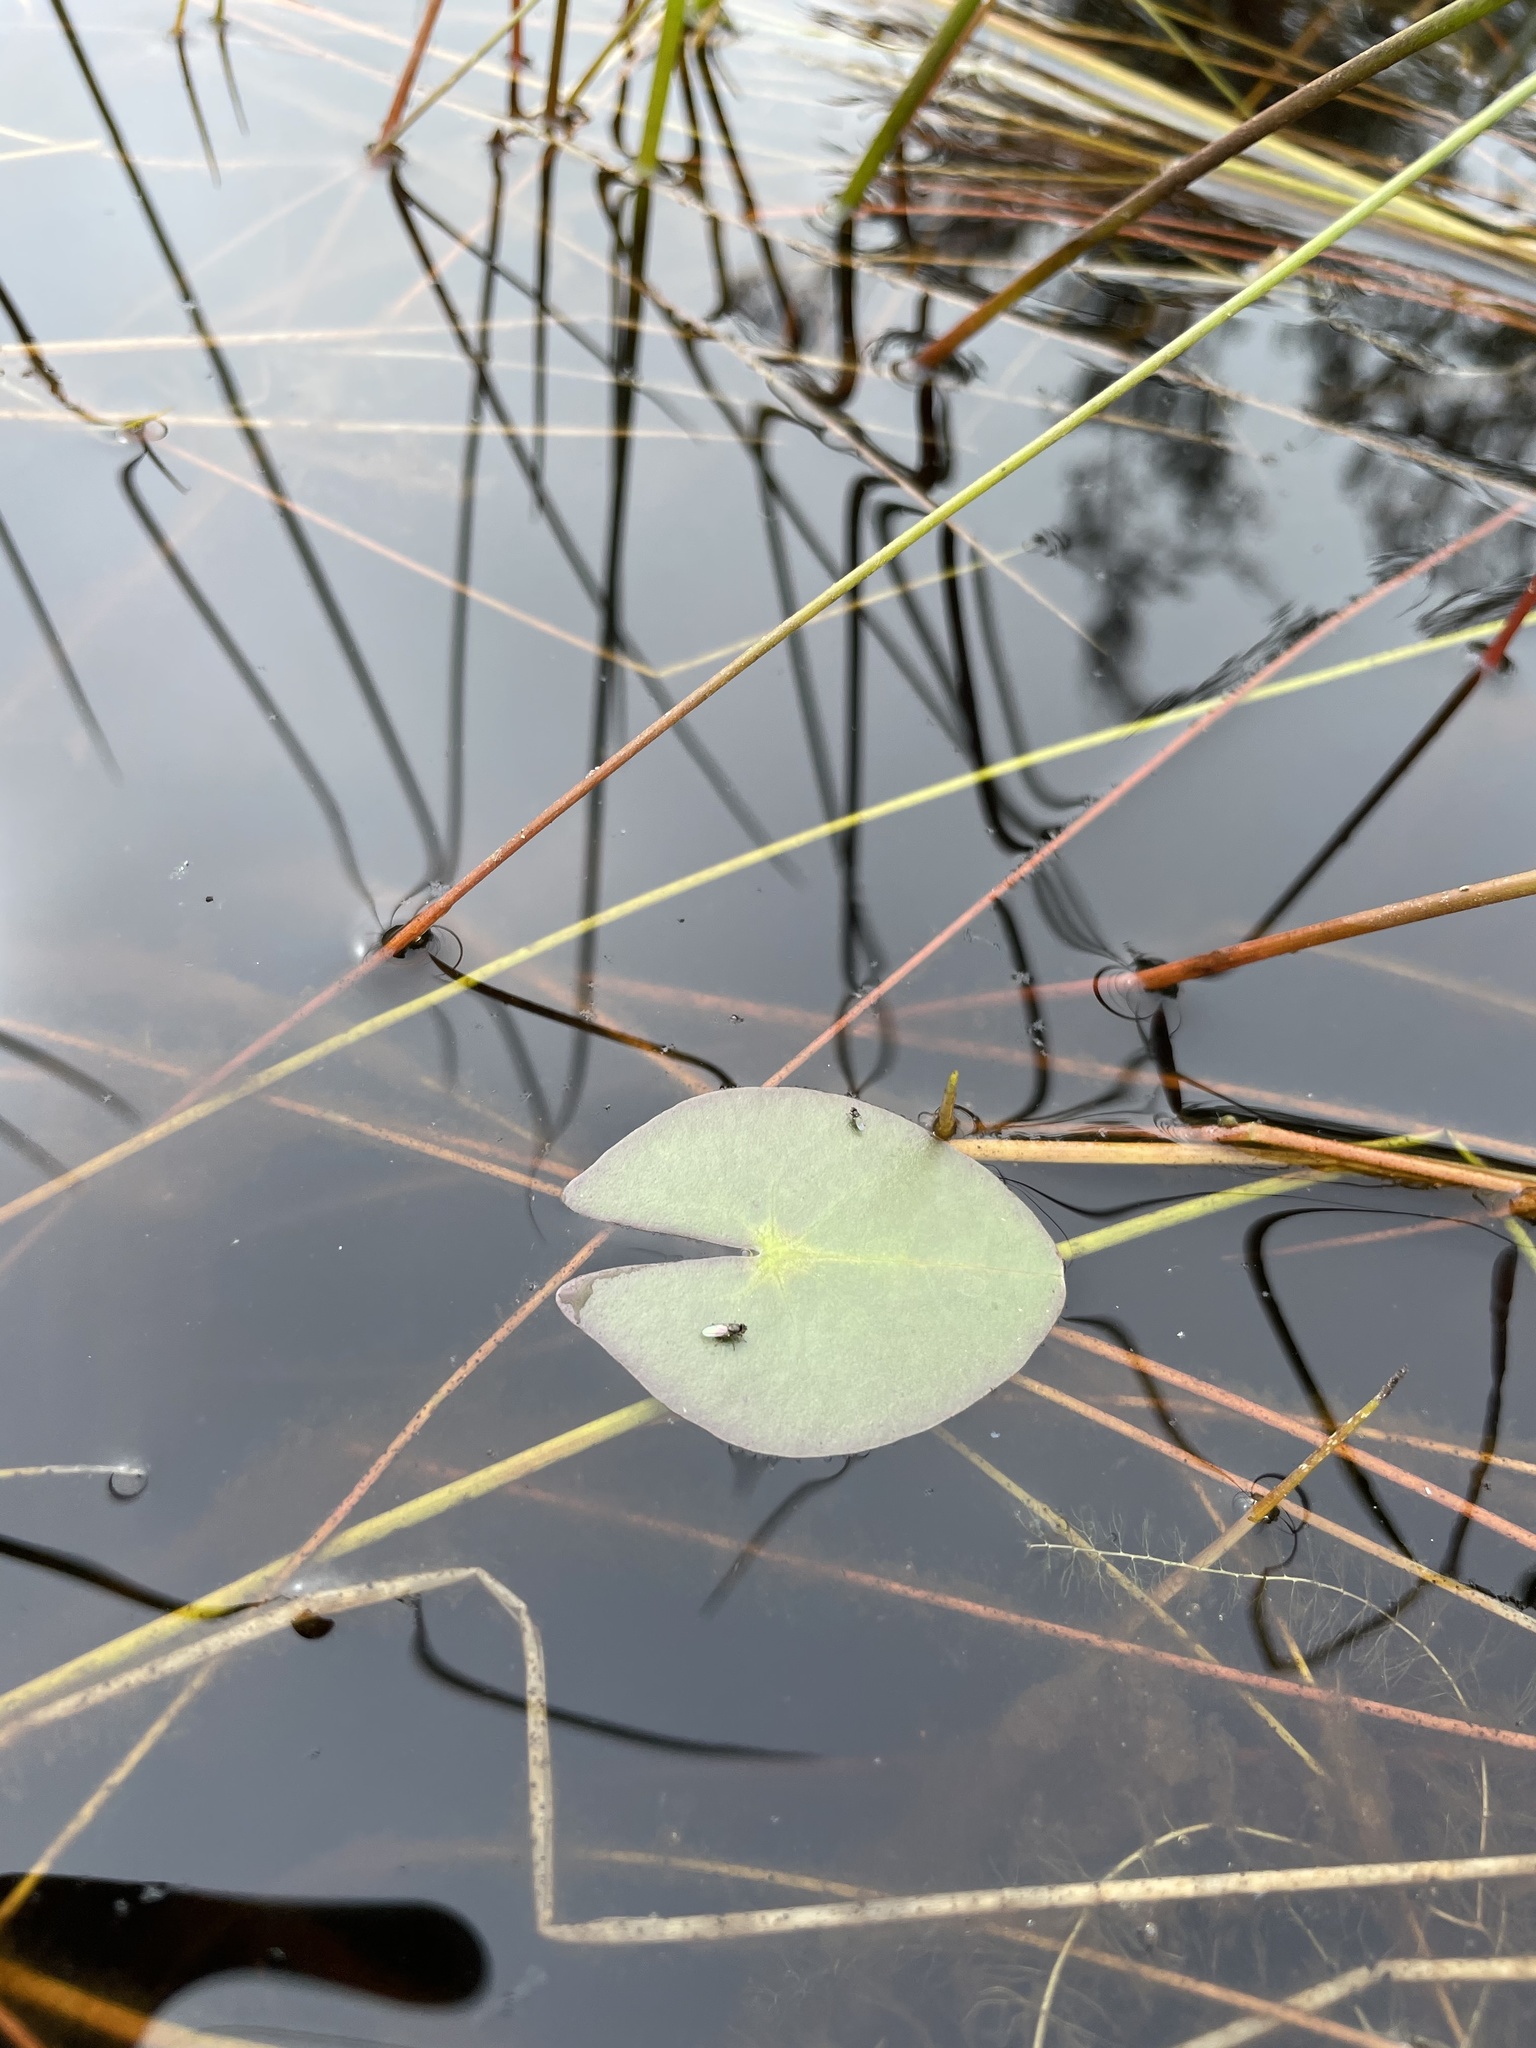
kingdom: Plantae
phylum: Tracheophyta
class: Magnoliopsida
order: Nymphaeales
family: Nymphaeaceae
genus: Nymphaea
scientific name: Nymphaea odorata
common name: Fragrant water-lily
